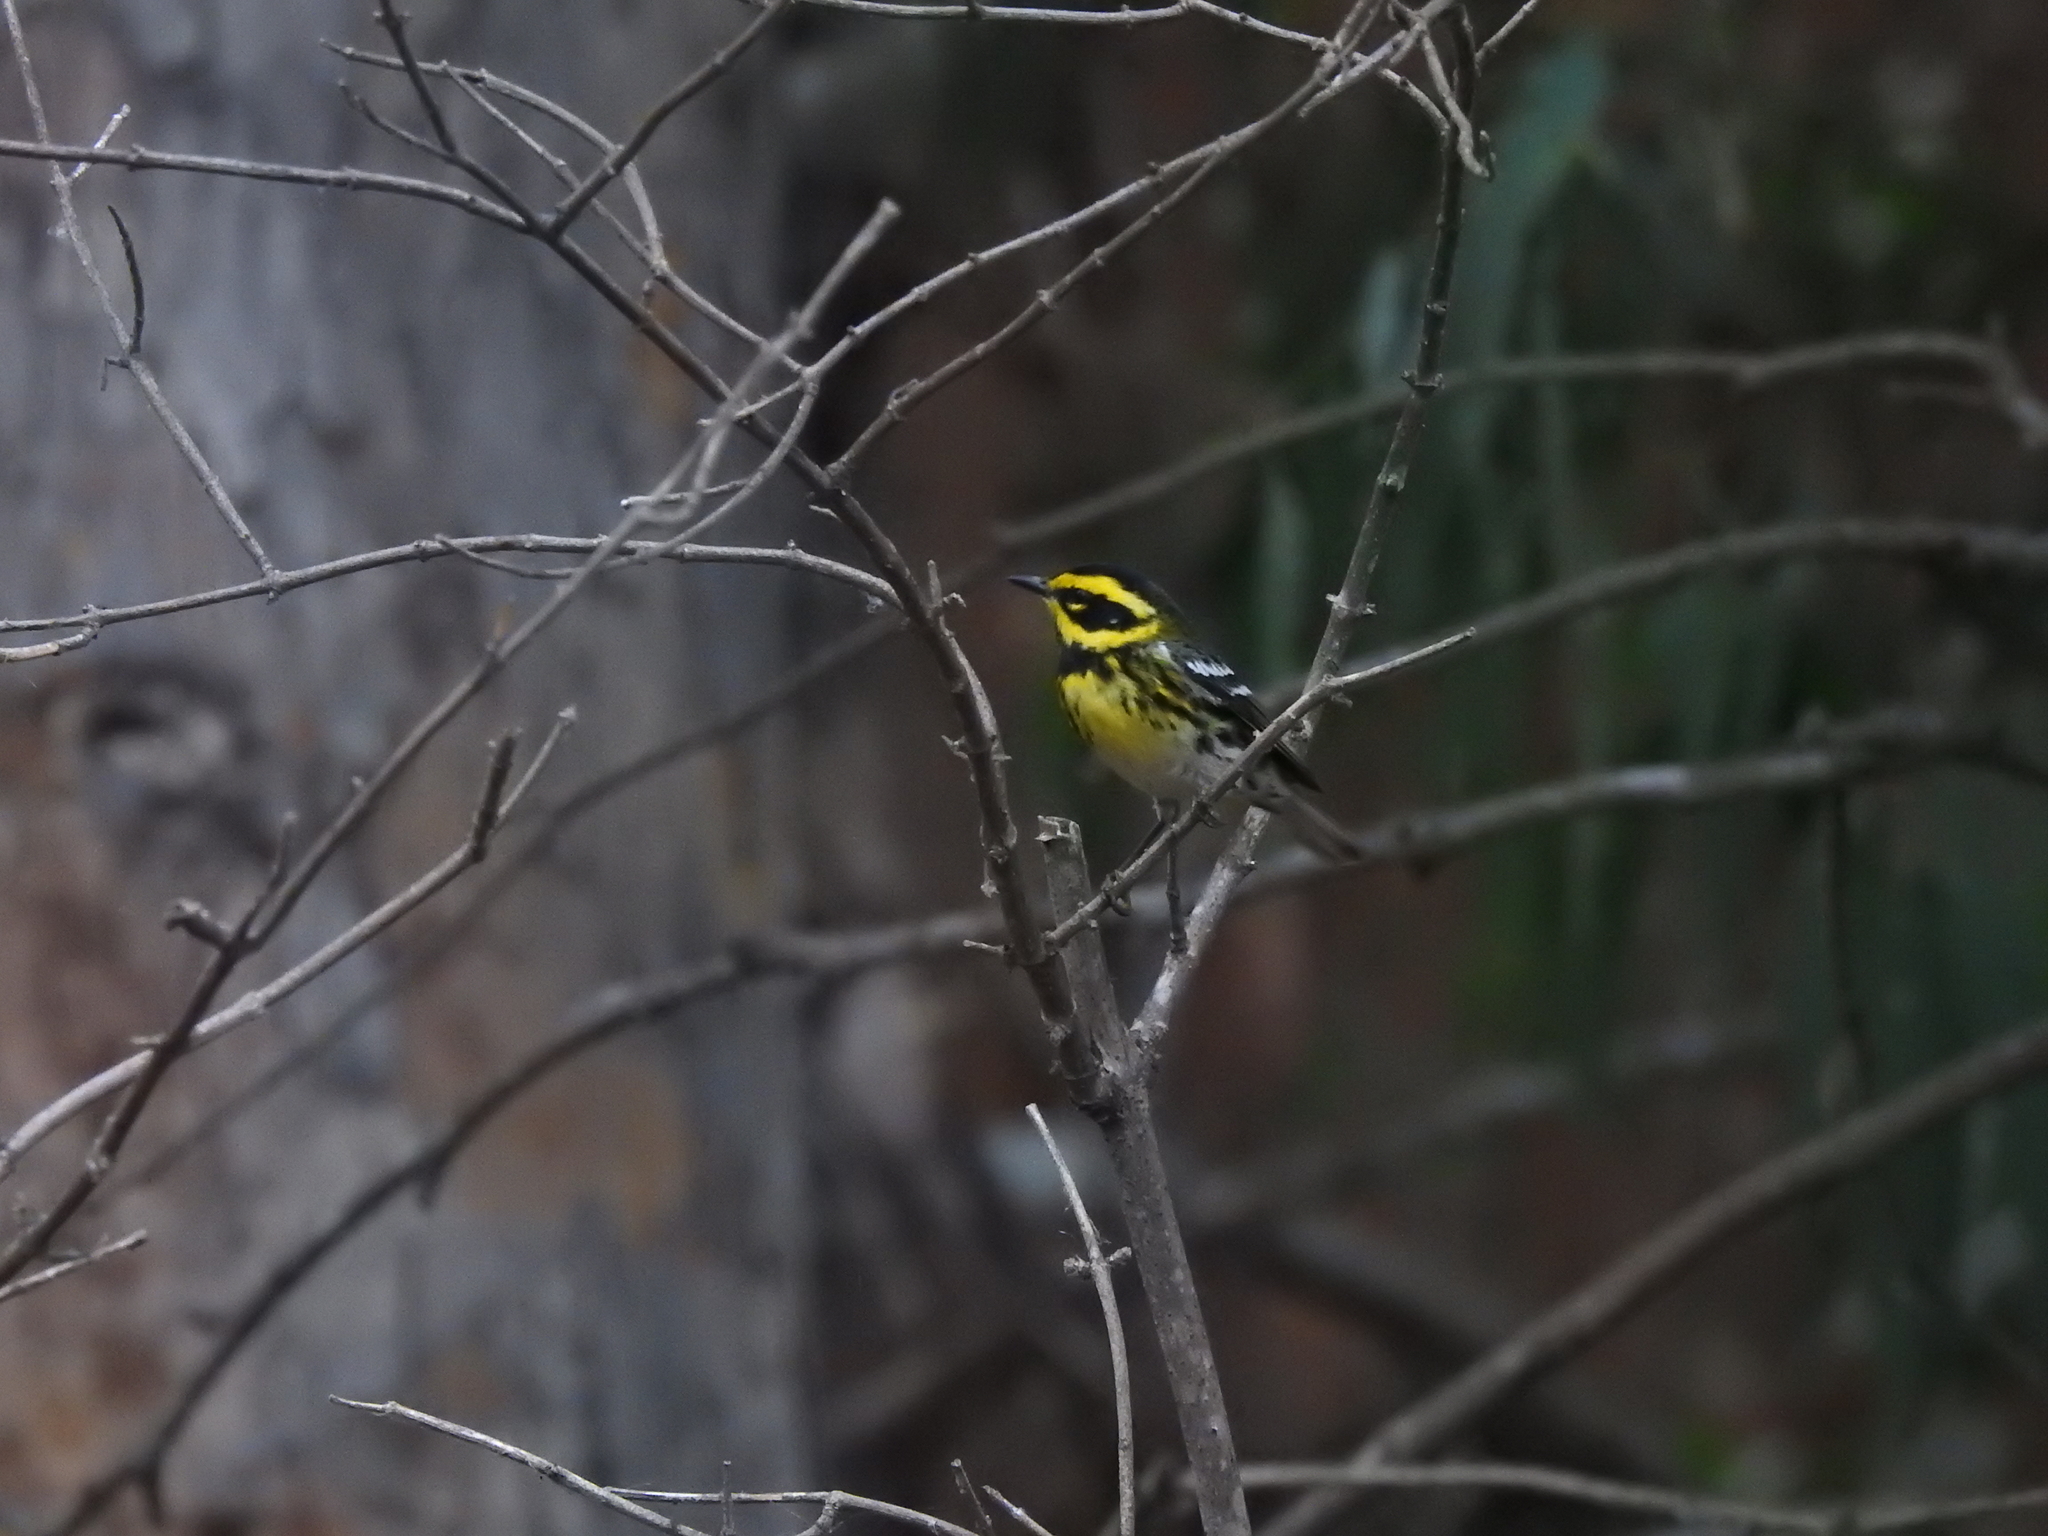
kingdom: Animalia
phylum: Chordata
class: Aves
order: Passeriformes
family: Parulidae
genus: Setophaga
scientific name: Setophaga townsendi
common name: Townsend's warbler
